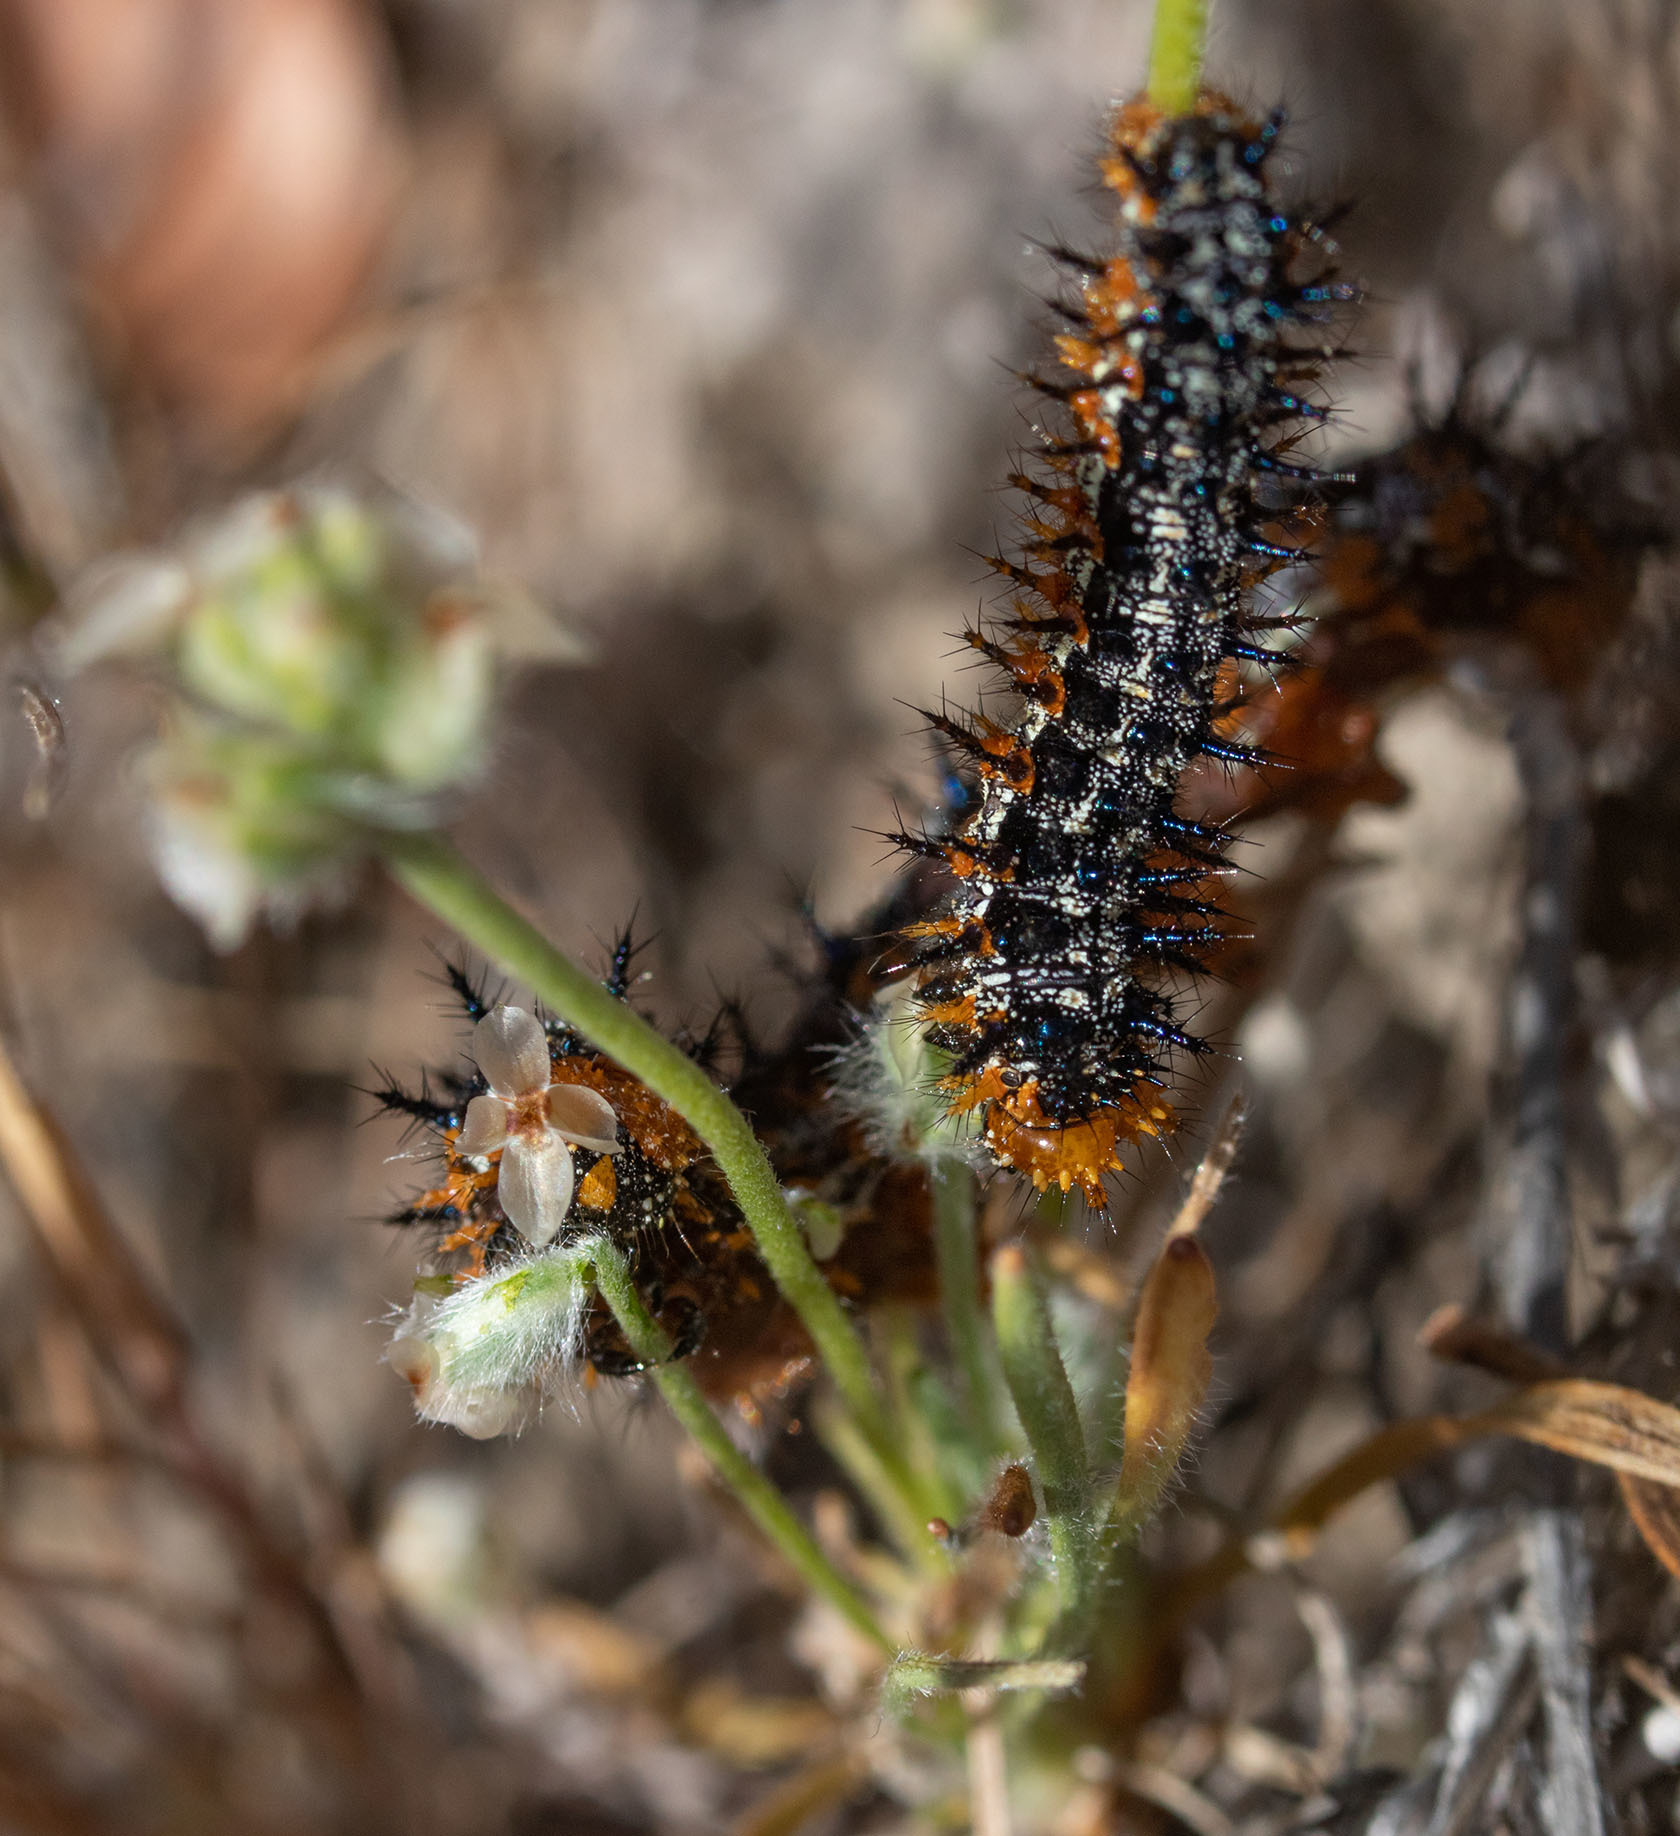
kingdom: Animalia
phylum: Arthropoda
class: Insecta
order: Lepidoptera
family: Nymphalidae
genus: Junonia
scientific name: Junonia grisea
